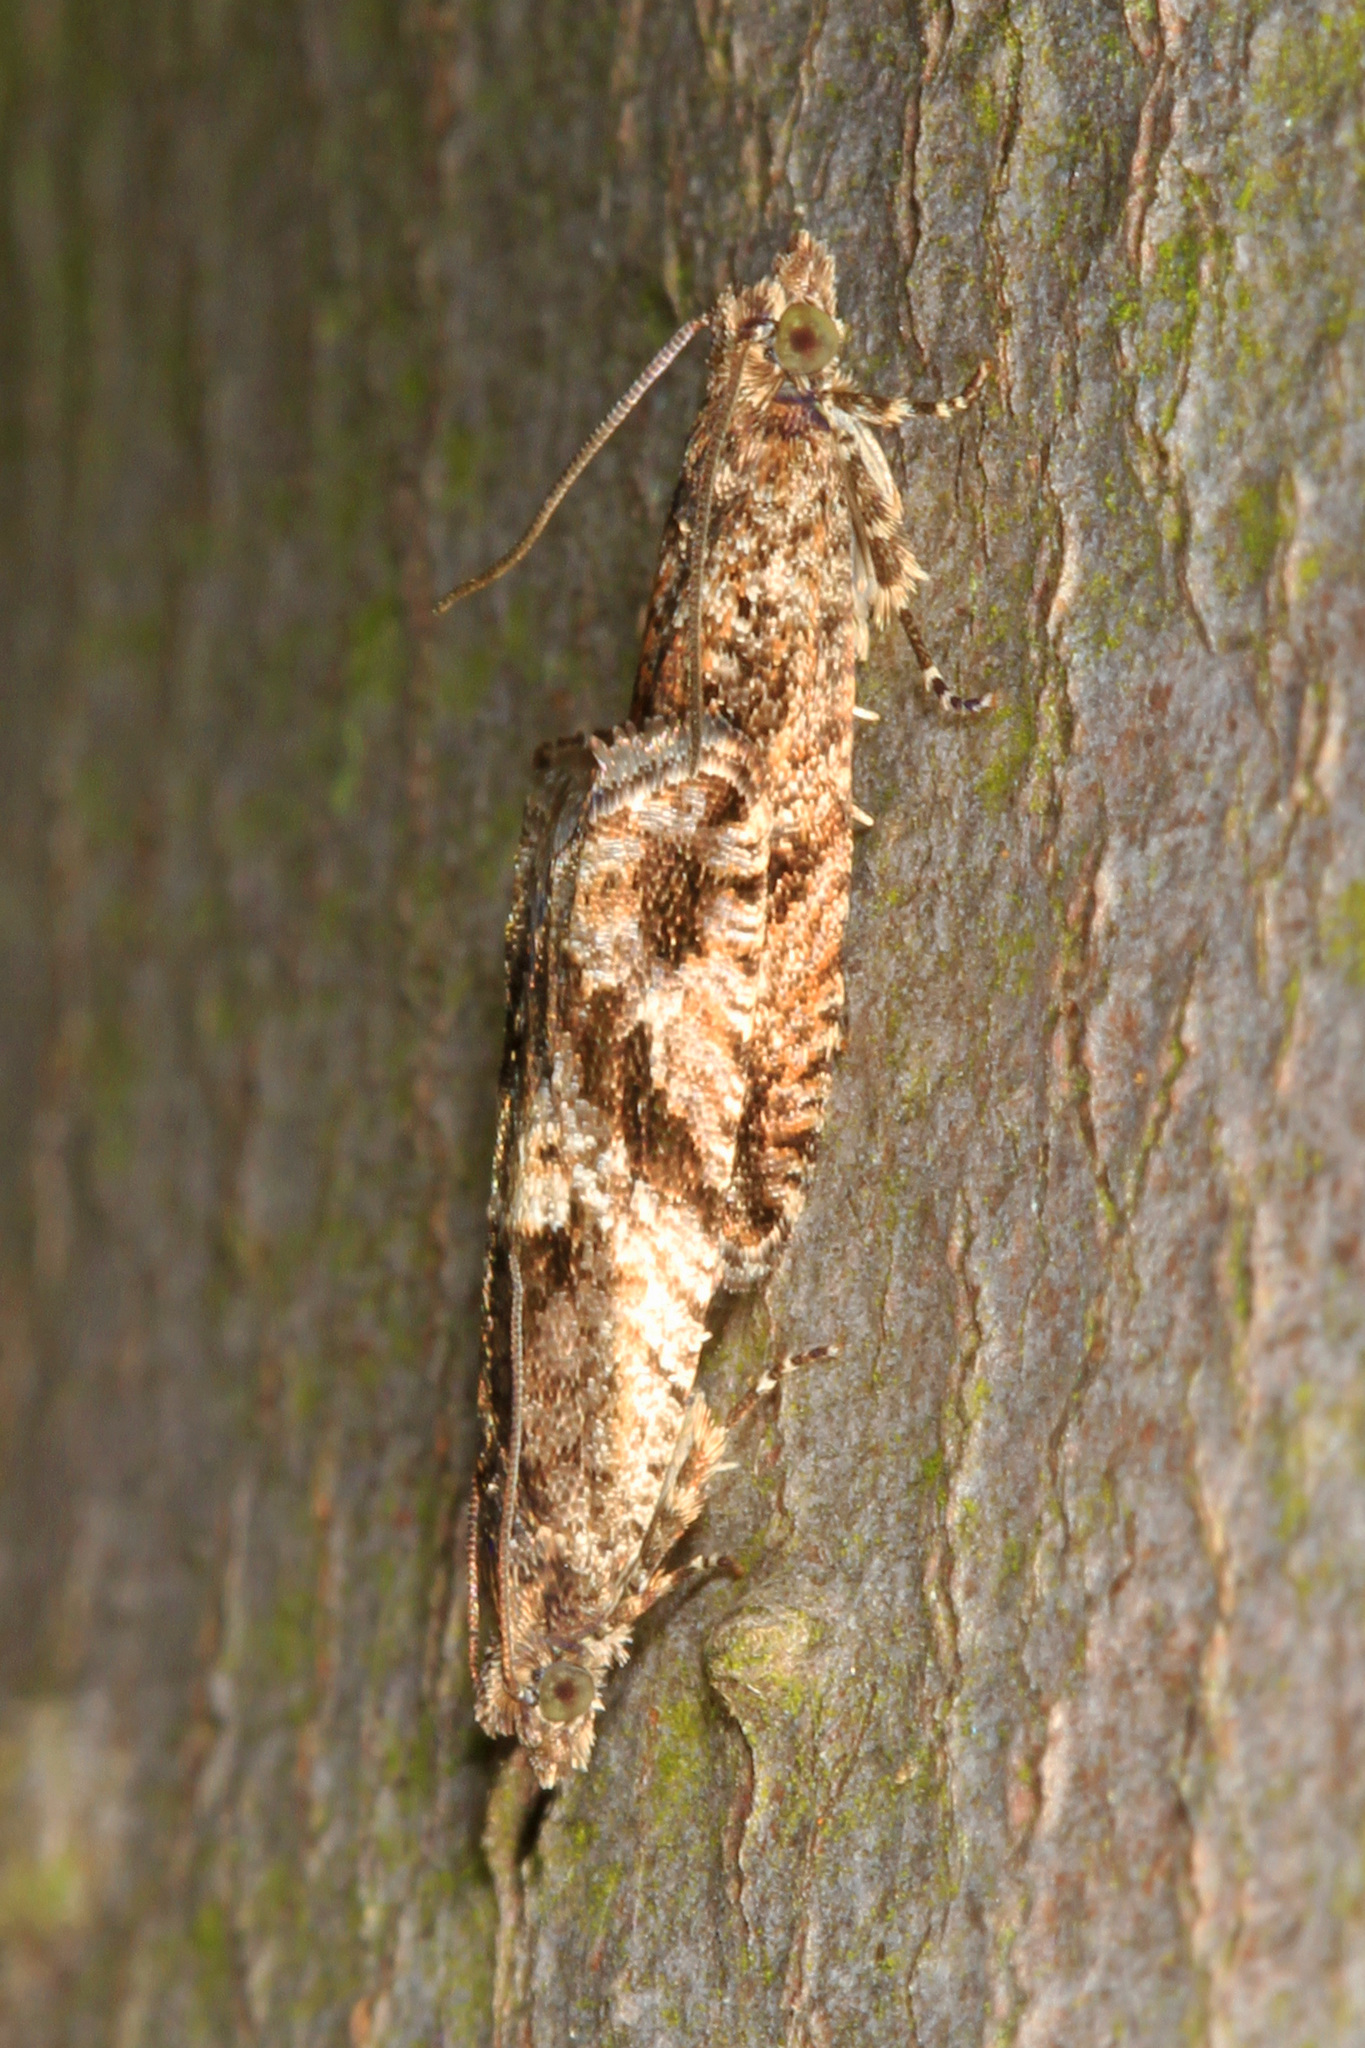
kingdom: Animalia
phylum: Arthropoda
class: Insecta
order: Lepidoptera
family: Tortricidae
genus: Chimoptesis
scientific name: Chimoptesis gerulae
